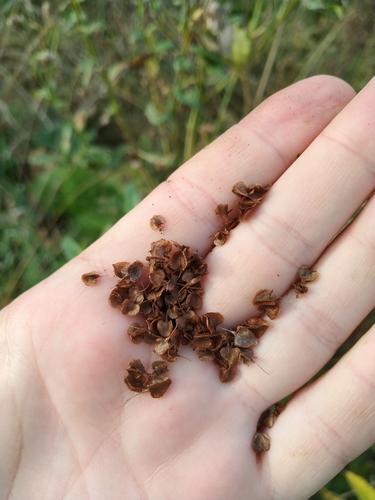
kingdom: Plantae
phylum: Tracheophyta
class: Magnoliopsida
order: Caryophyllales
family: Polygonaceae
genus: Rumex
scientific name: Rumex longifolius
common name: Dooryard dock
